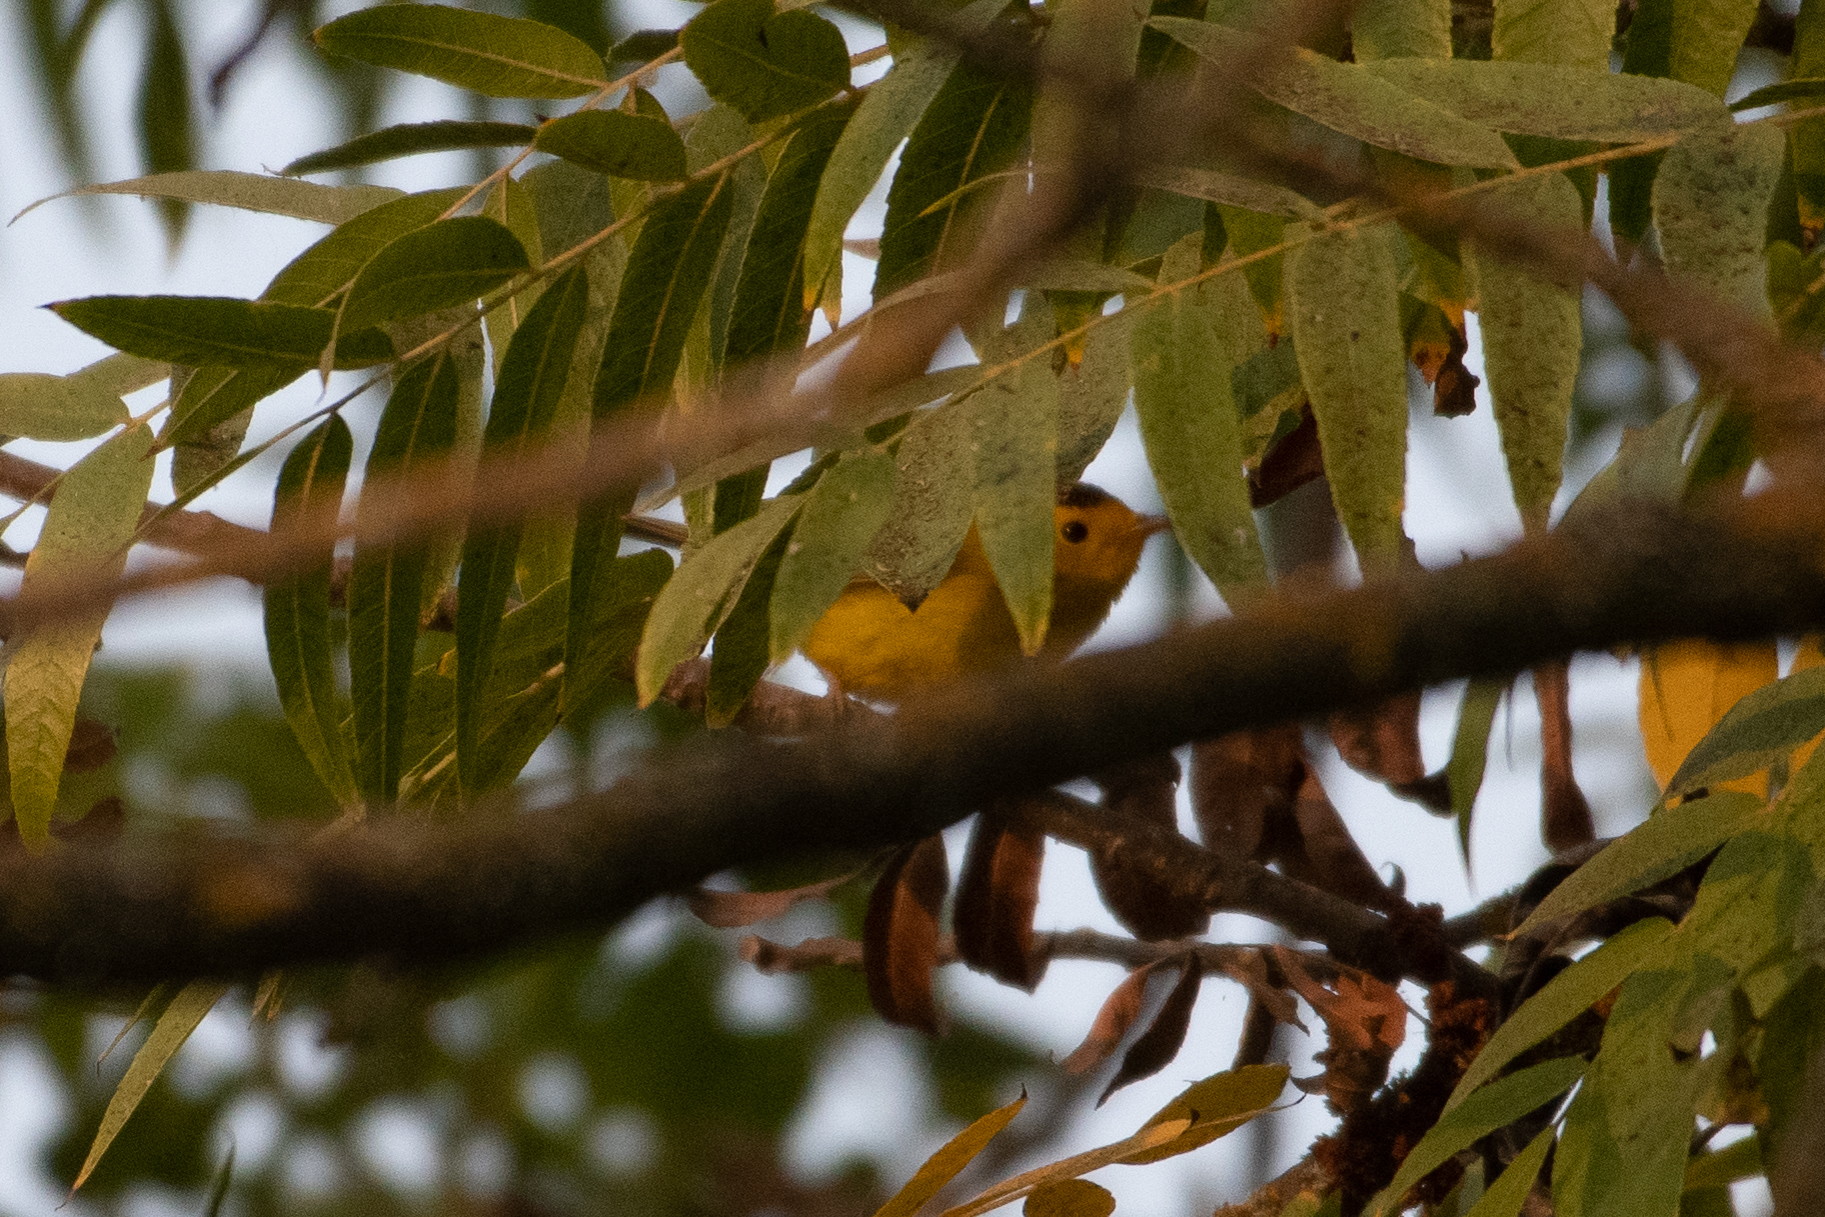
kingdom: Animalia
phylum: Chordata
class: Aves
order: Passeriformes
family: Parulidae
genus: Cardellina
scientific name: Cardellina pusilla
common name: Wilson's warbler
